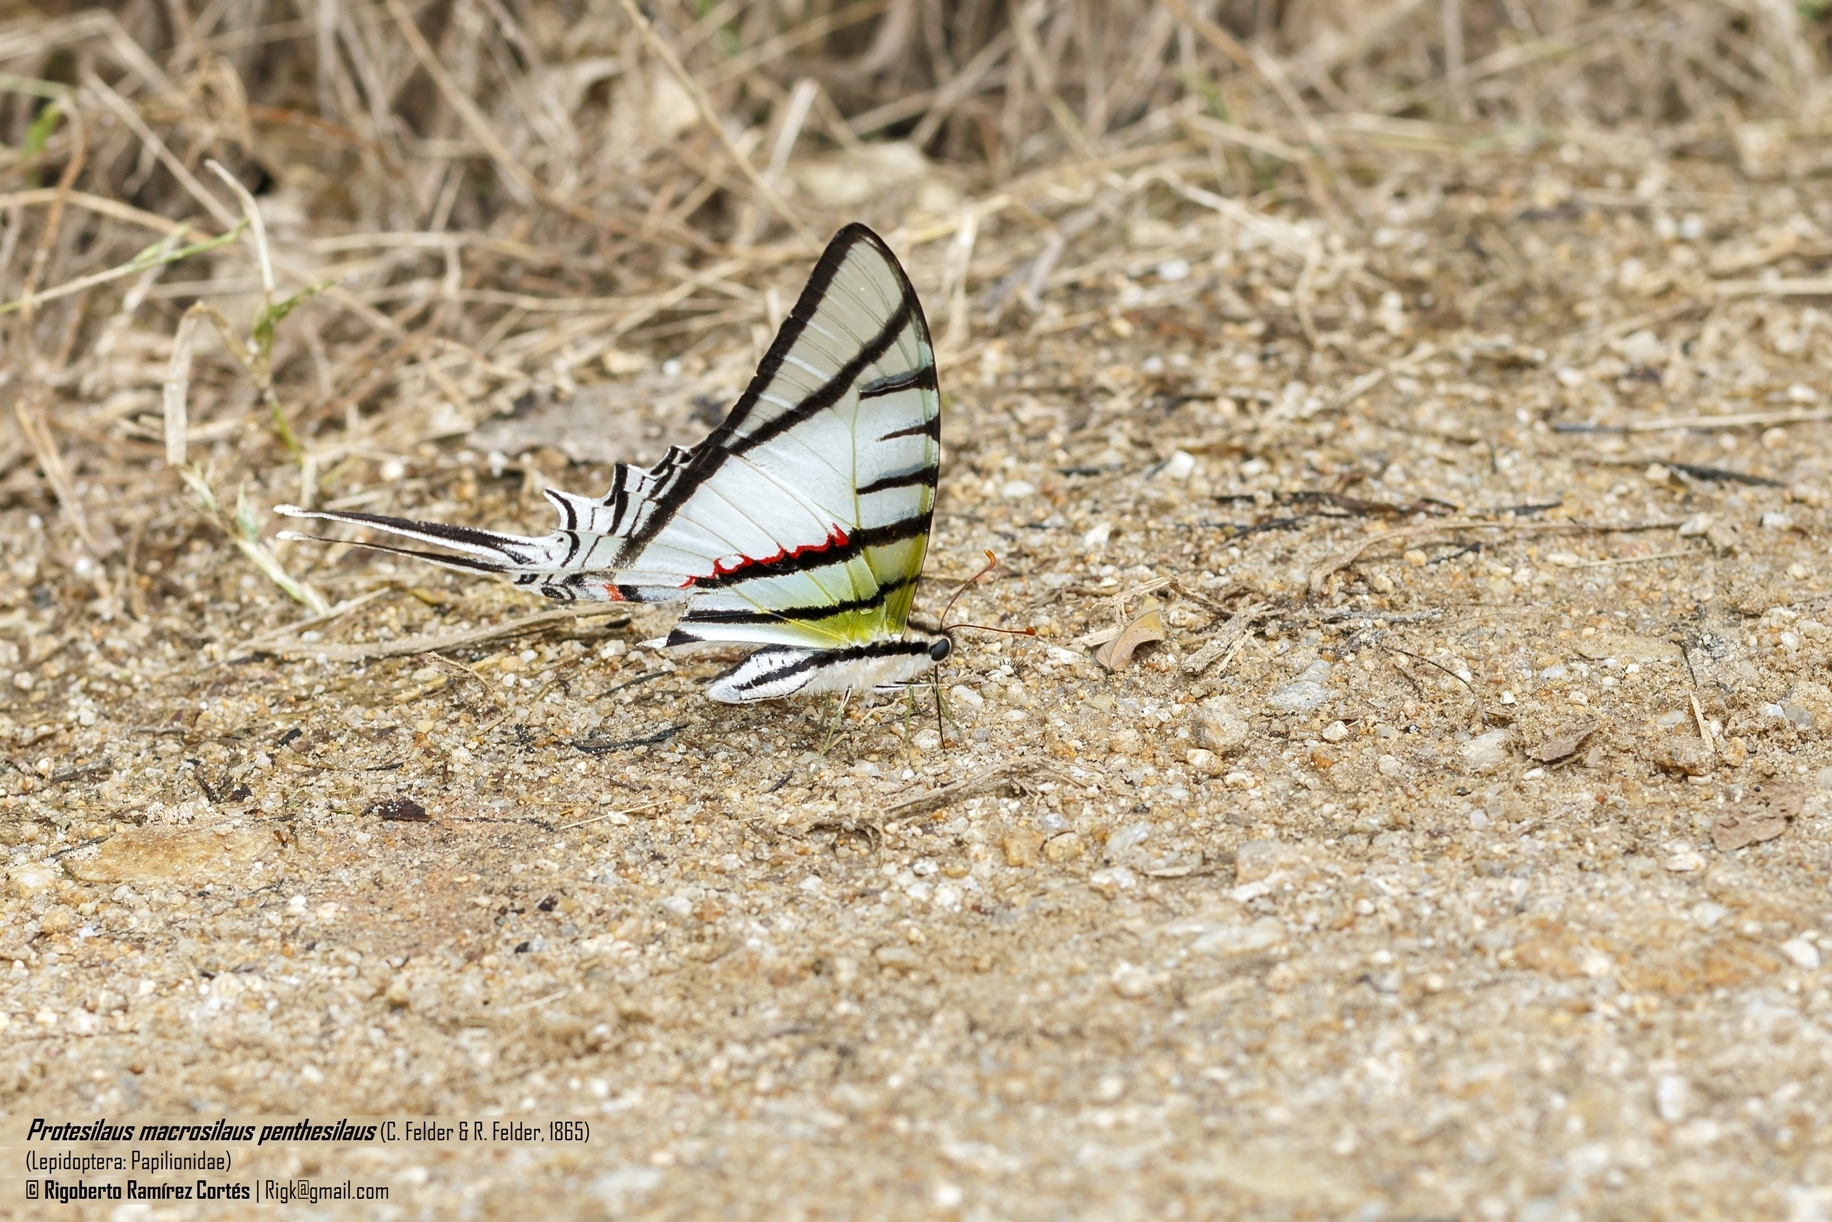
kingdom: Animalia
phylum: Arthropoda
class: Insecta
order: Lepidoptera
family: Papilionidae
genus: Protesilaus
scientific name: Protesilaus macrosilaus
